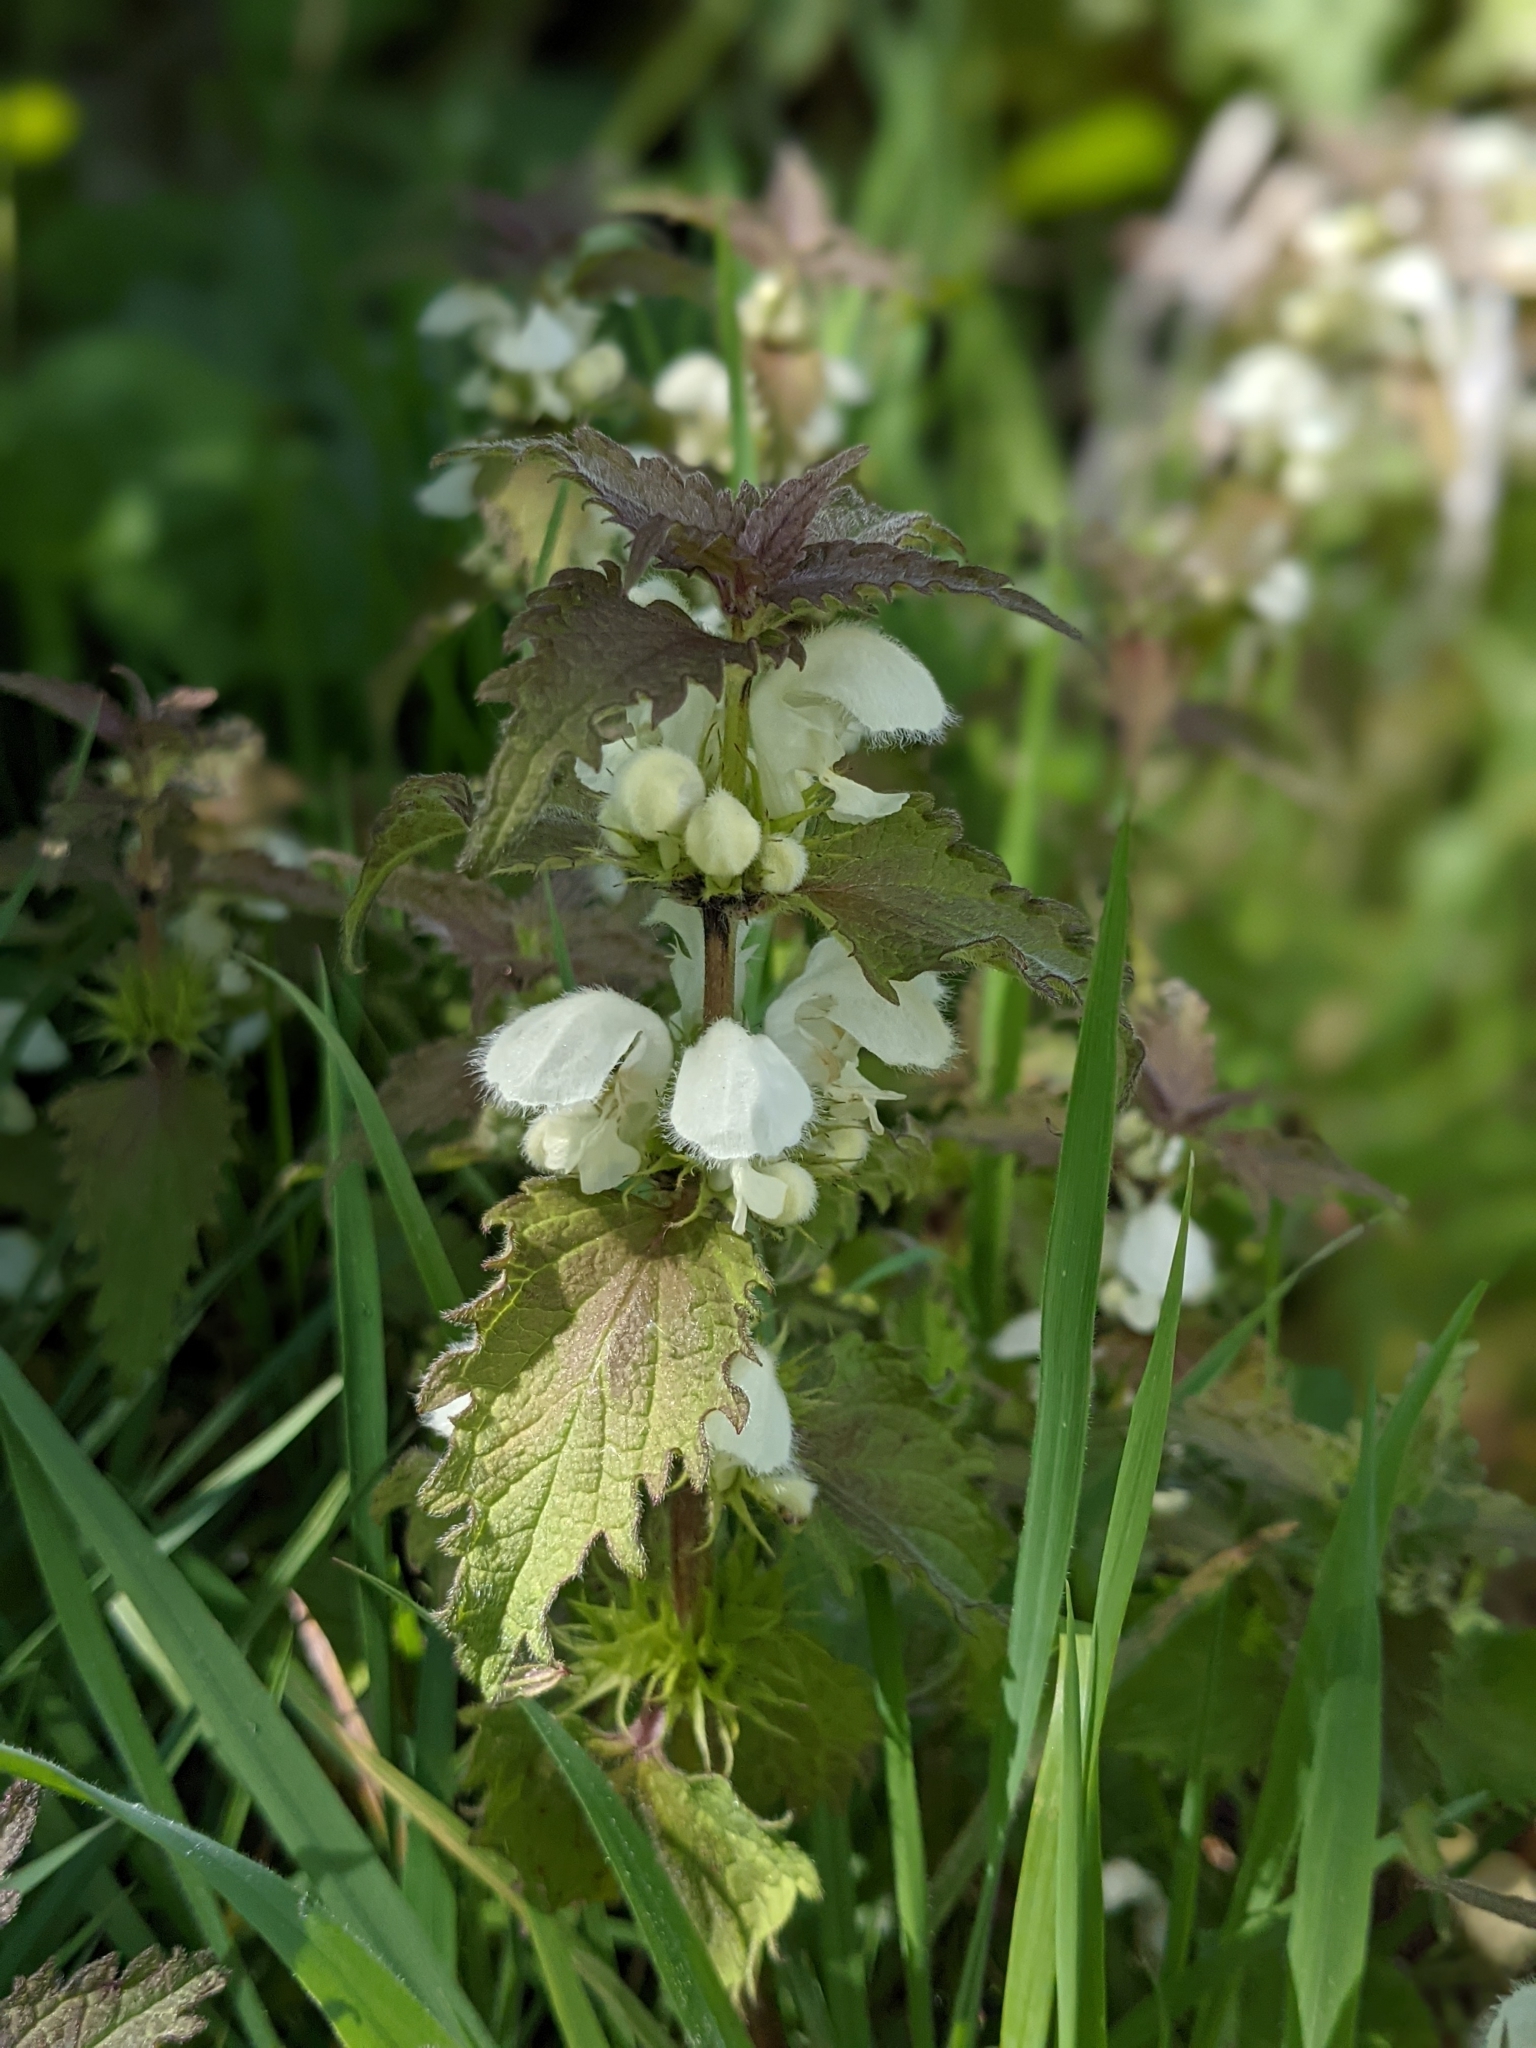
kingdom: Plantae
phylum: Tracheophyta
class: Magnoliopsida
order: Lamiales
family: Lamiaceae
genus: Lamium
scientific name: Lamium album
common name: White dead-nettle
